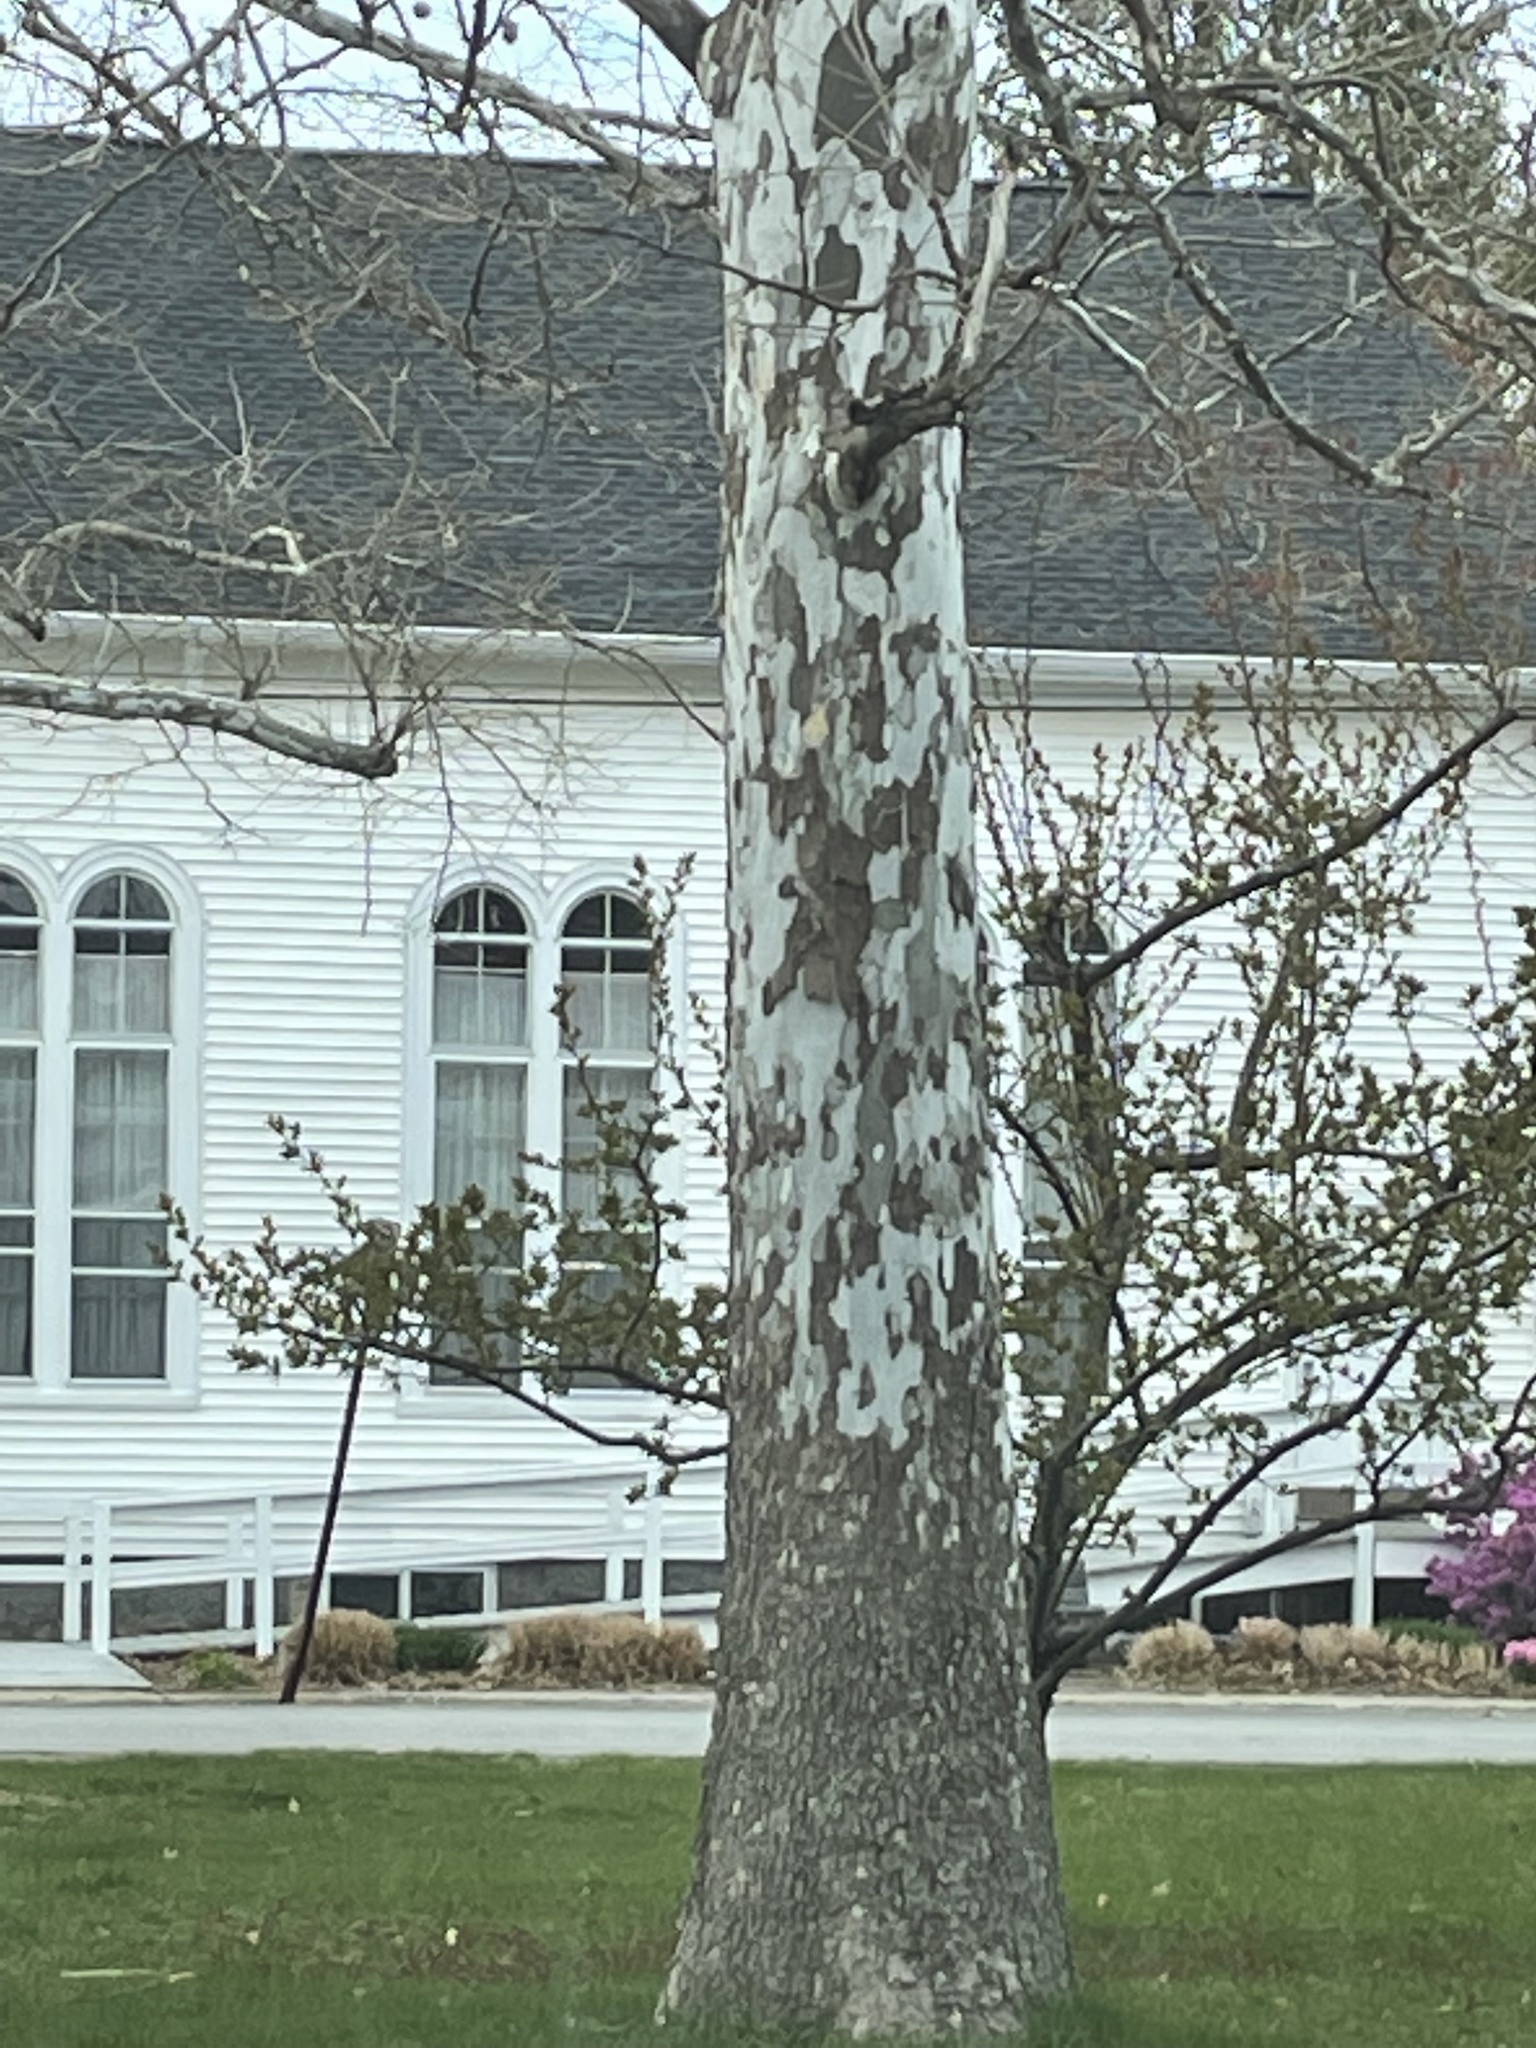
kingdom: Plantae
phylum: Tracheophyta
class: Magnoliopsida
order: Proteales
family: Platanaceae
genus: Platanus
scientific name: Platanus occidentalis
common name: American sycamore
